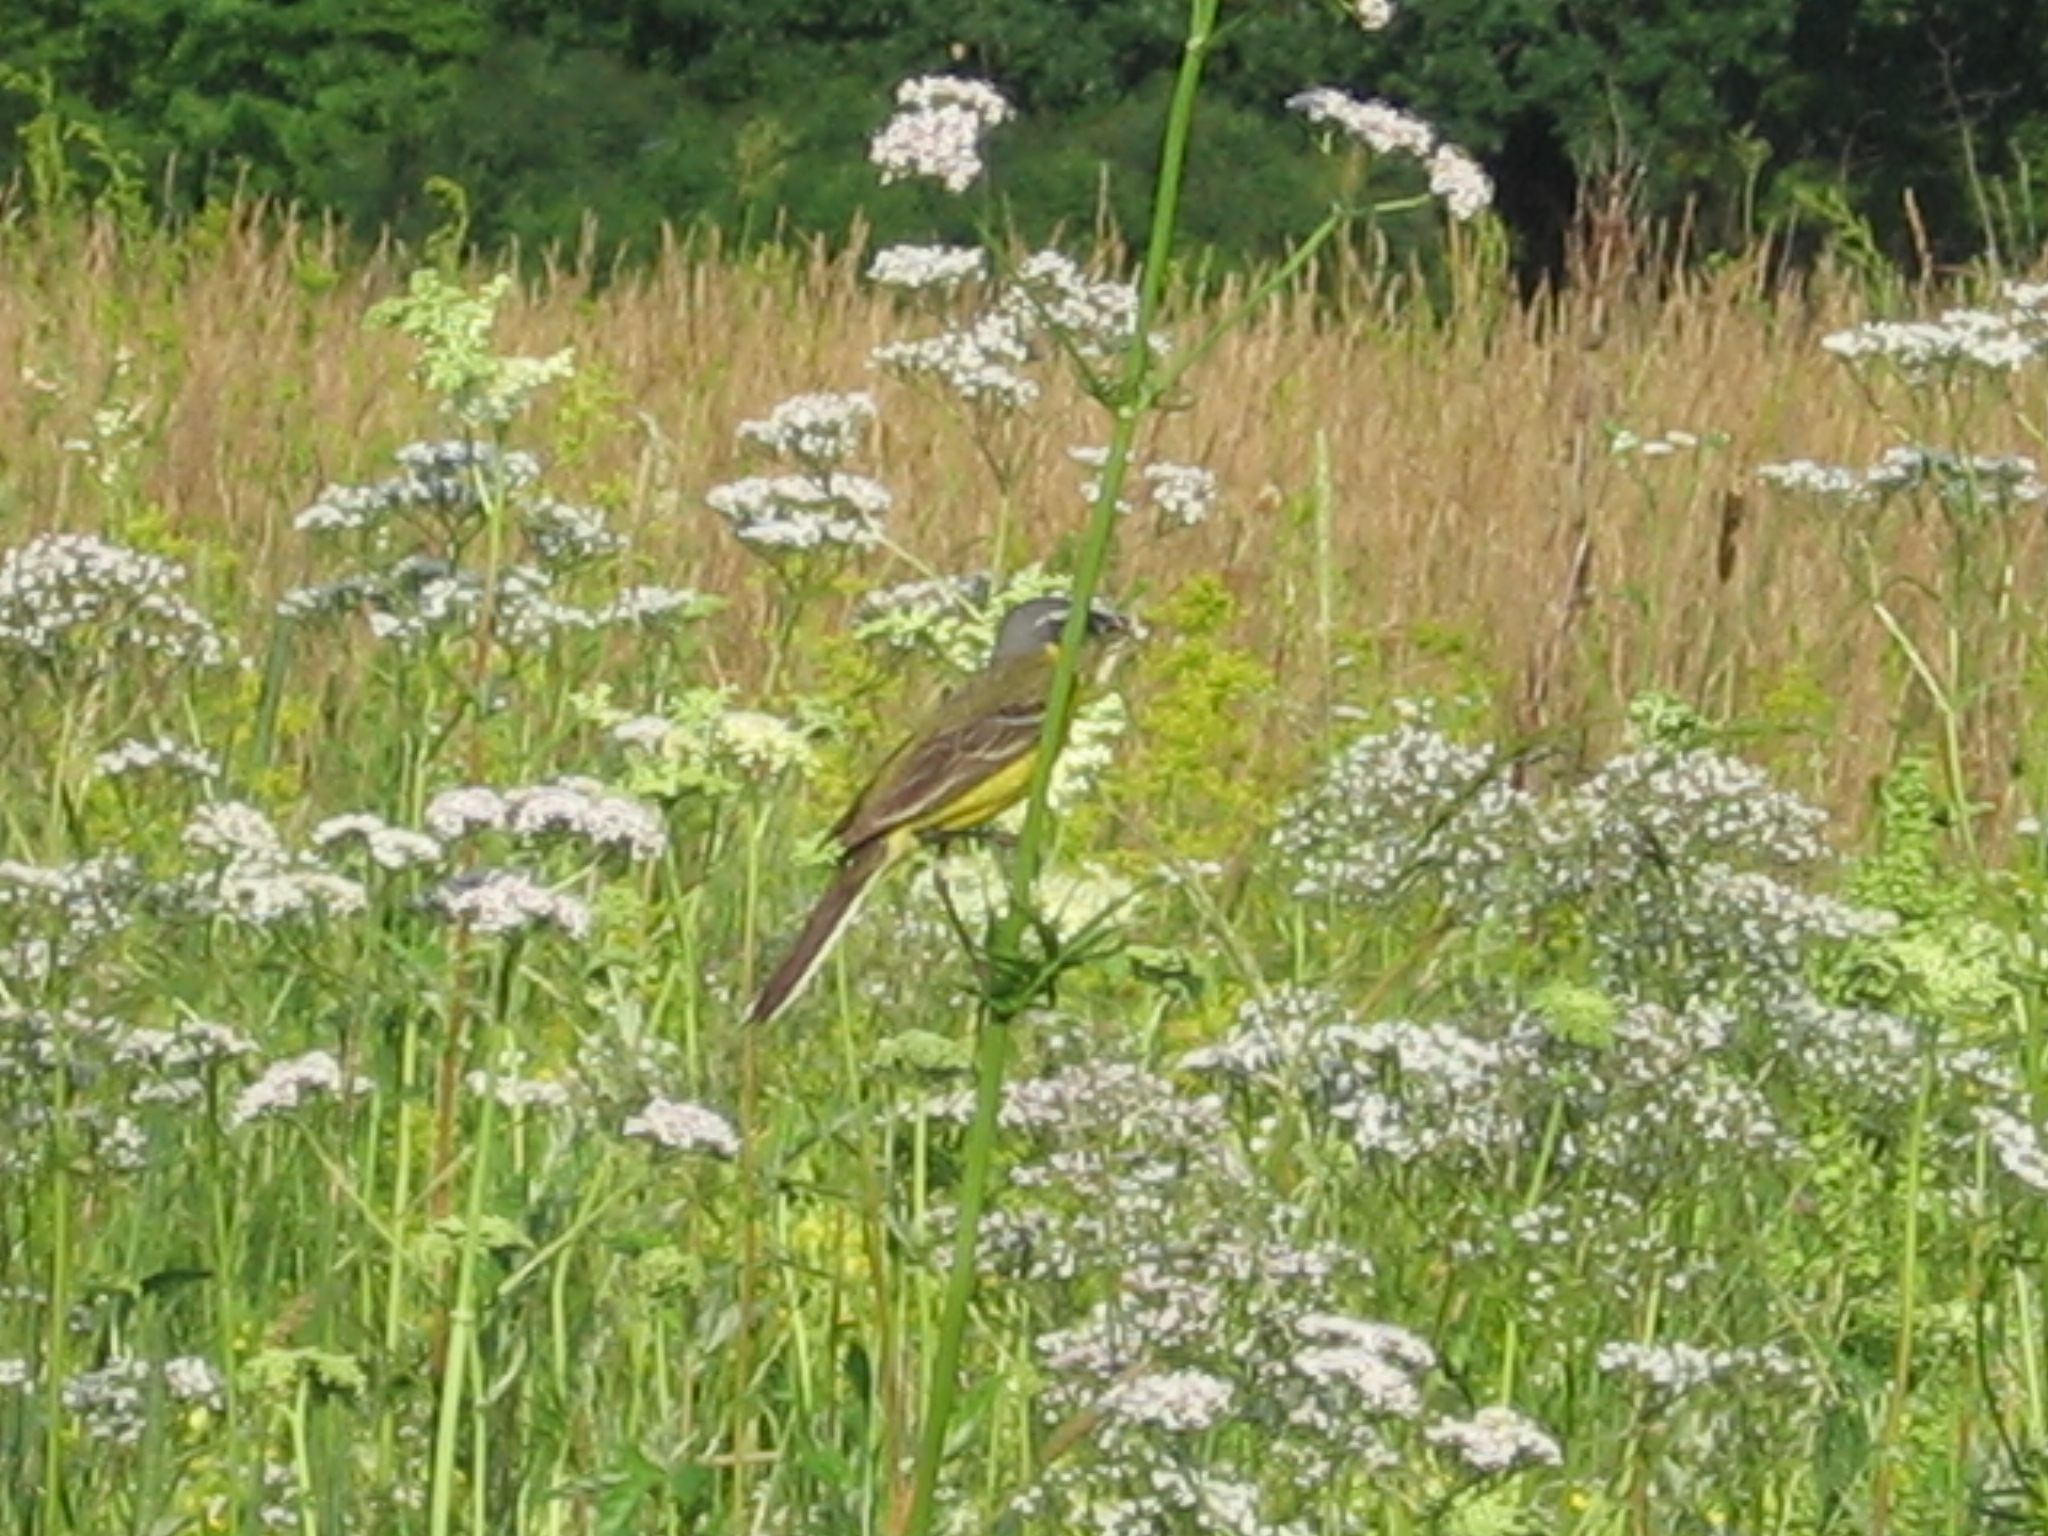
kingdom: Animalia
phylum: Chordata
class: Aves
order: Passeriformes
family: Motacillidae
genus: Motacilla
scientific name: Motacilla flava
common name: Western yellow wagtail
